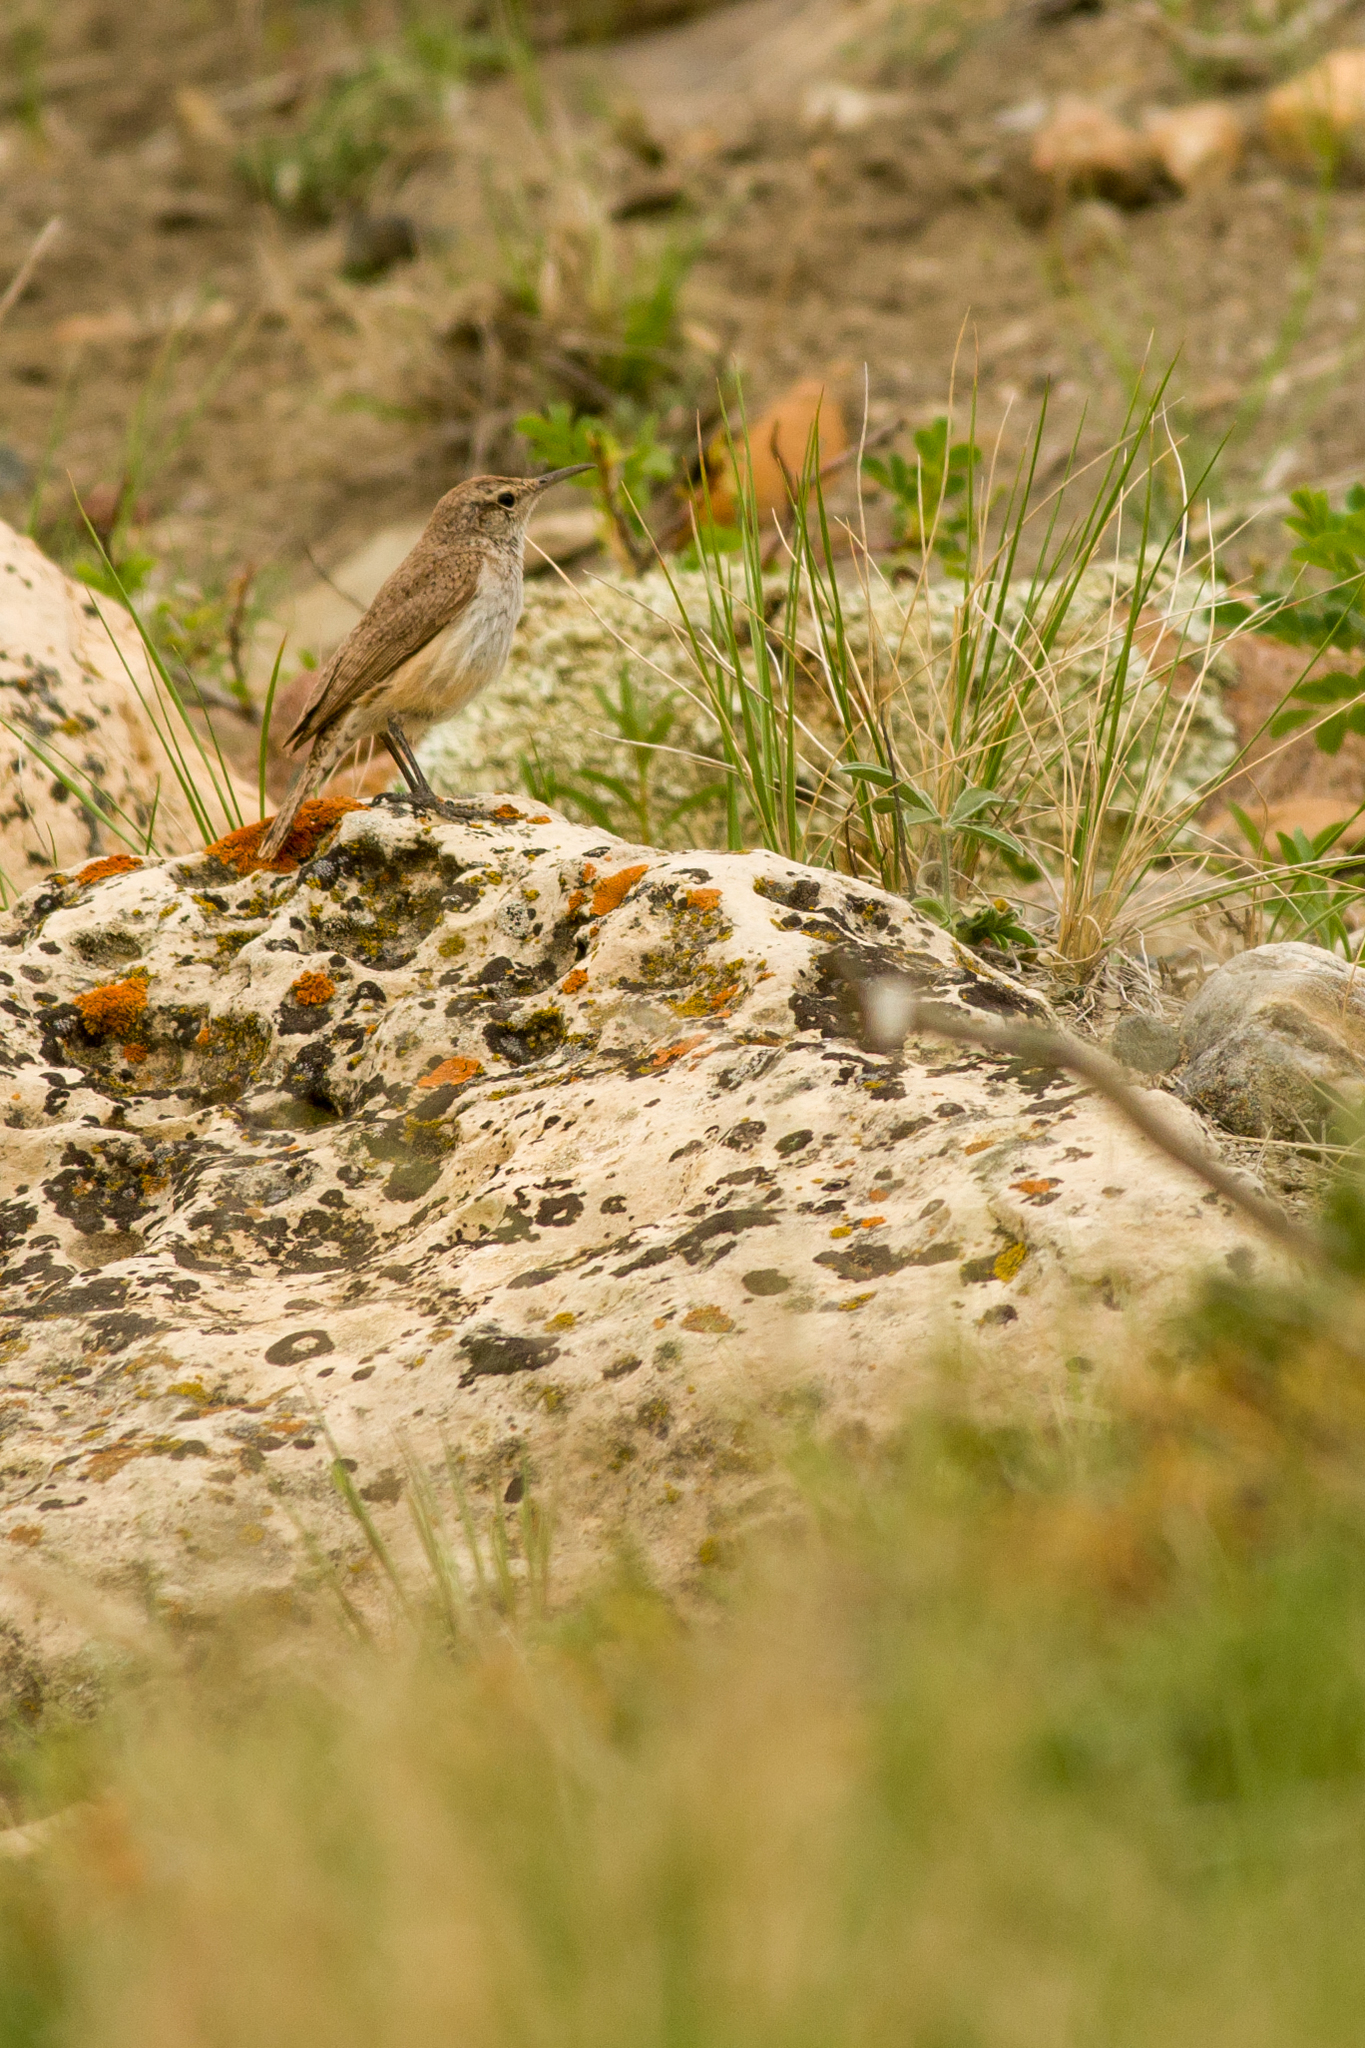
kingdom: Animalia
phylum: Chordata
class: Aves
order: Passeriformes
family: Troglodytidae
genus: Salpinctes
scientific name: Salpinctes obsoletus
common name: Rock wren
